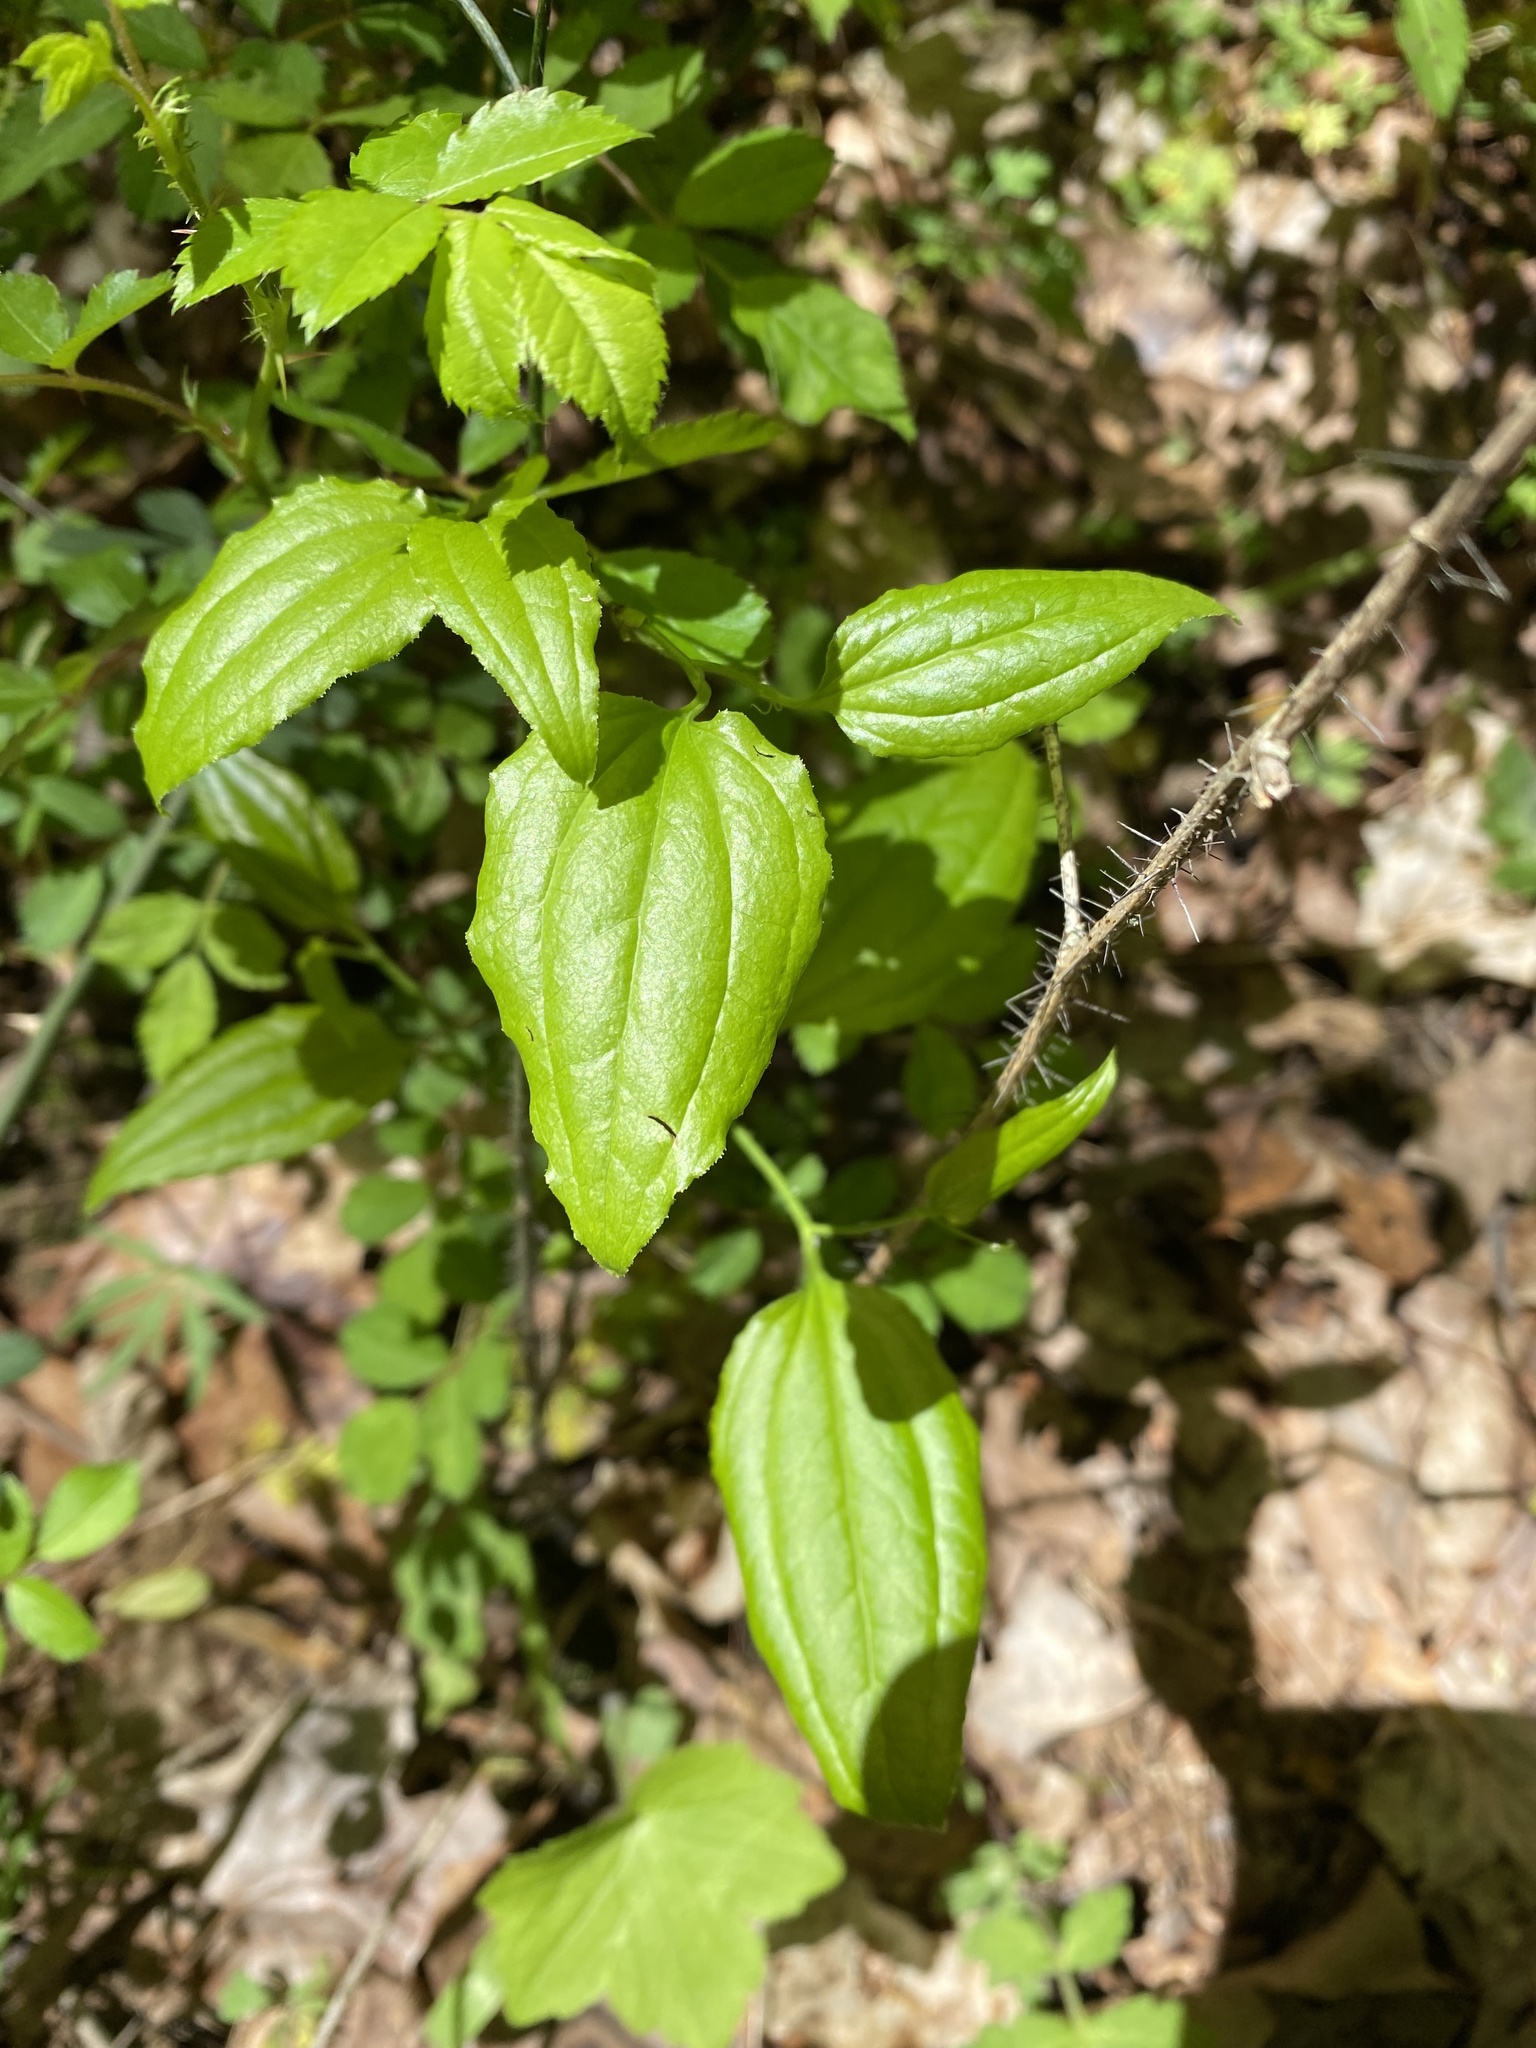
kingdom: Plantae
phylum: Tracheophyta
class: Liliopsida
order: Liliales
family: Smilacaceae
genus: Smilax
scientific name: Smilax tamnoides
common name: Hellfetter
